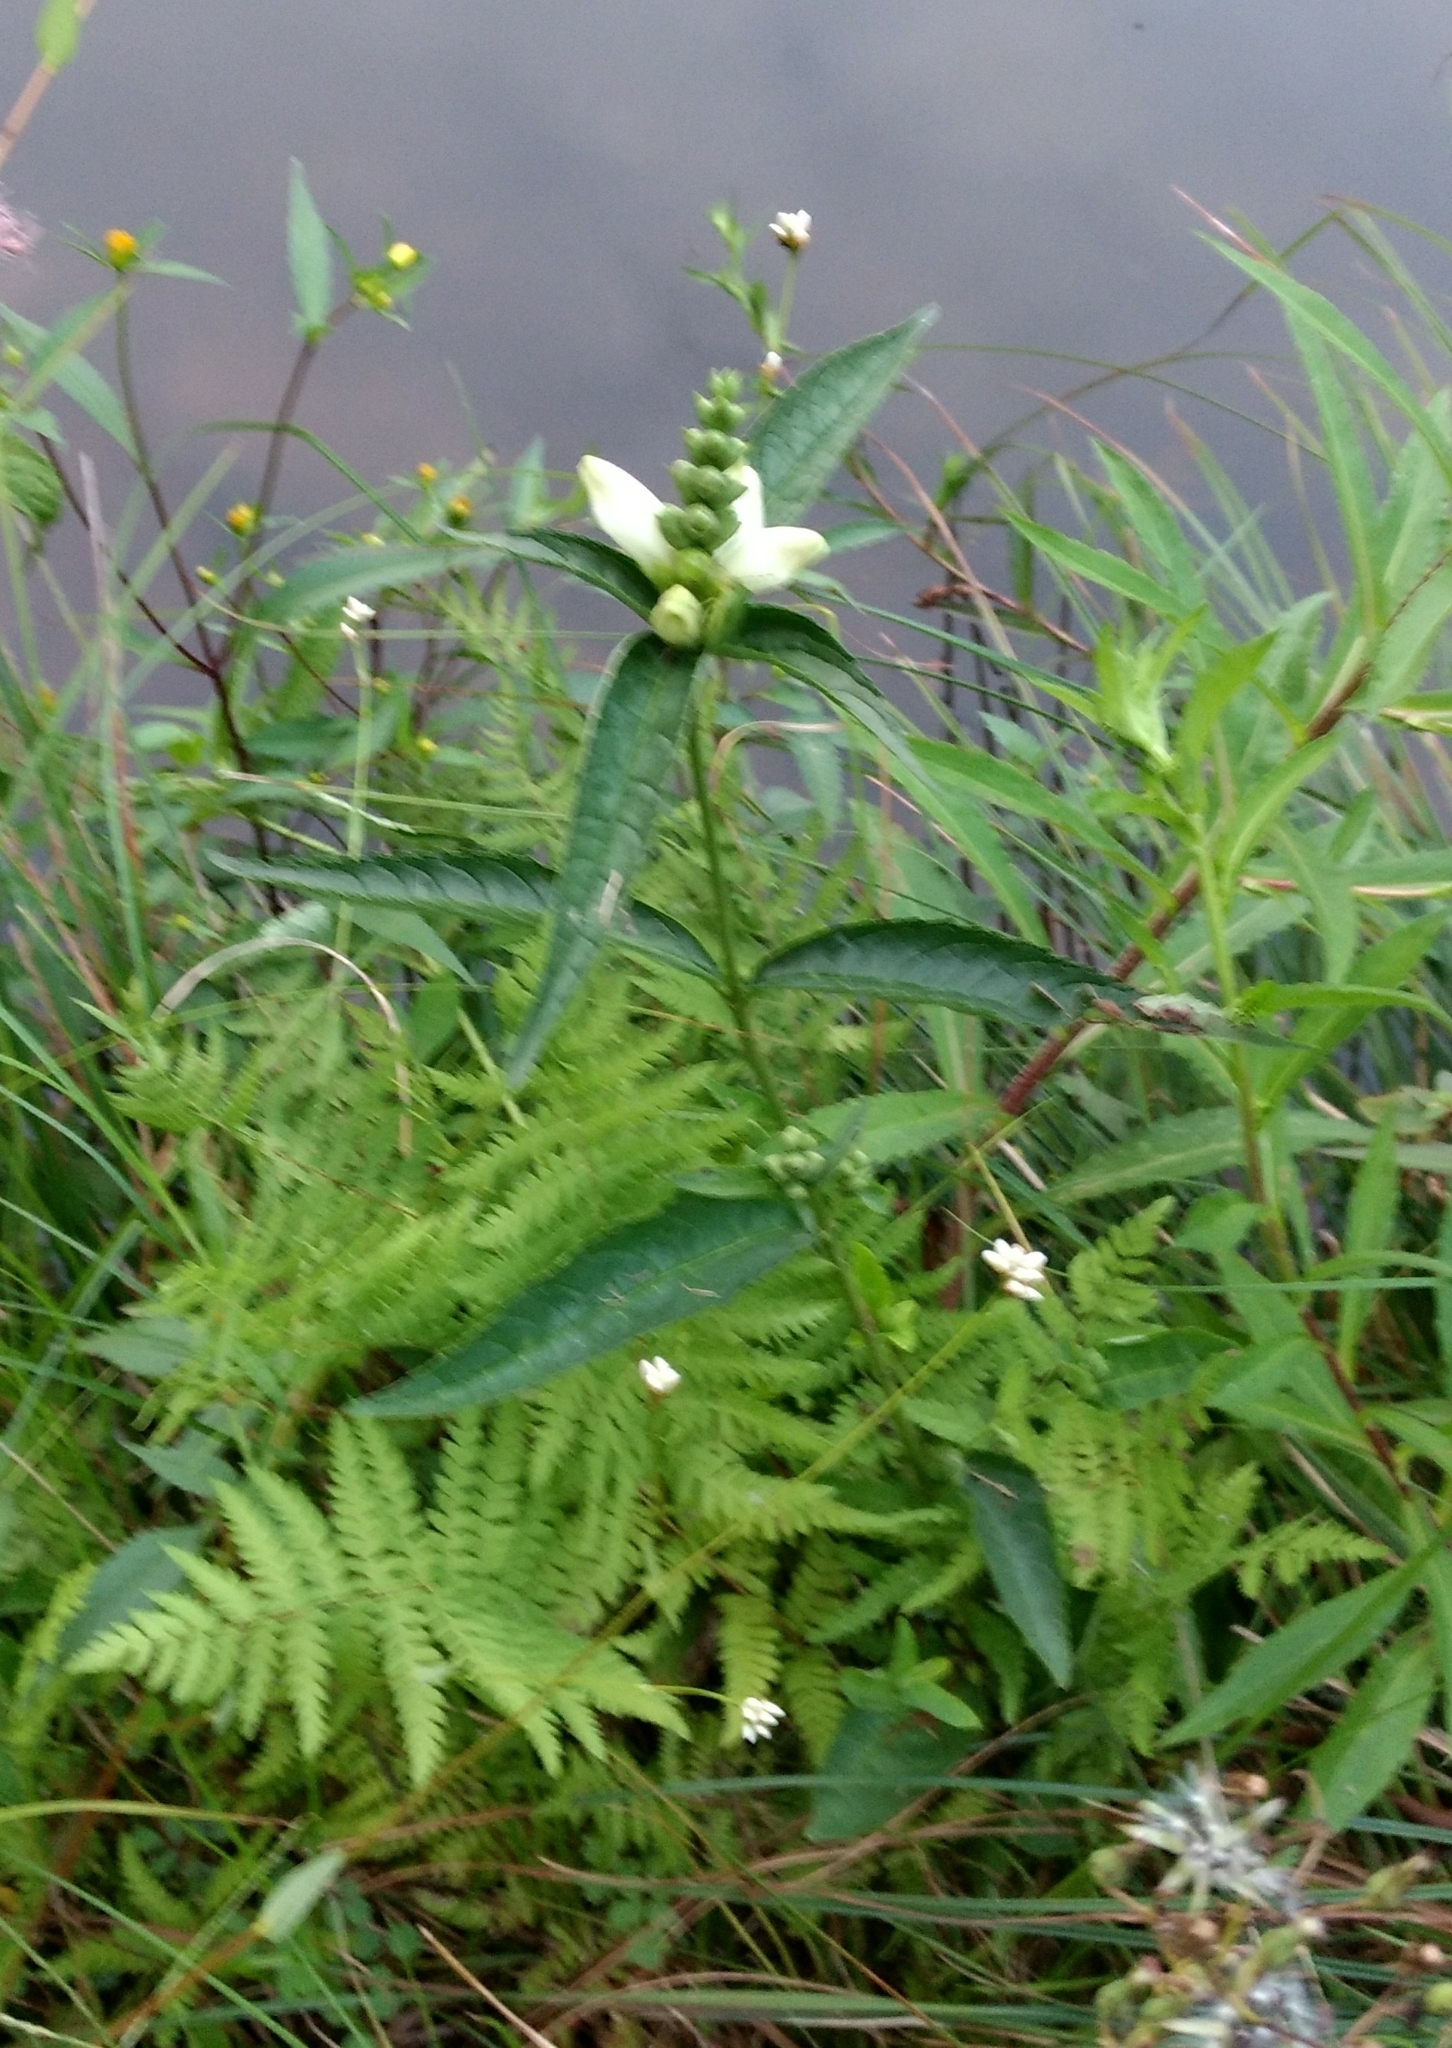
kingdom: Plantae
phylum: Tracheophyta
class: Magnoliopsida
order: Lamiales
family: Plantaginaceae
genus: Chelone
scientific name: Chelone glabra
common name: Snakehead
